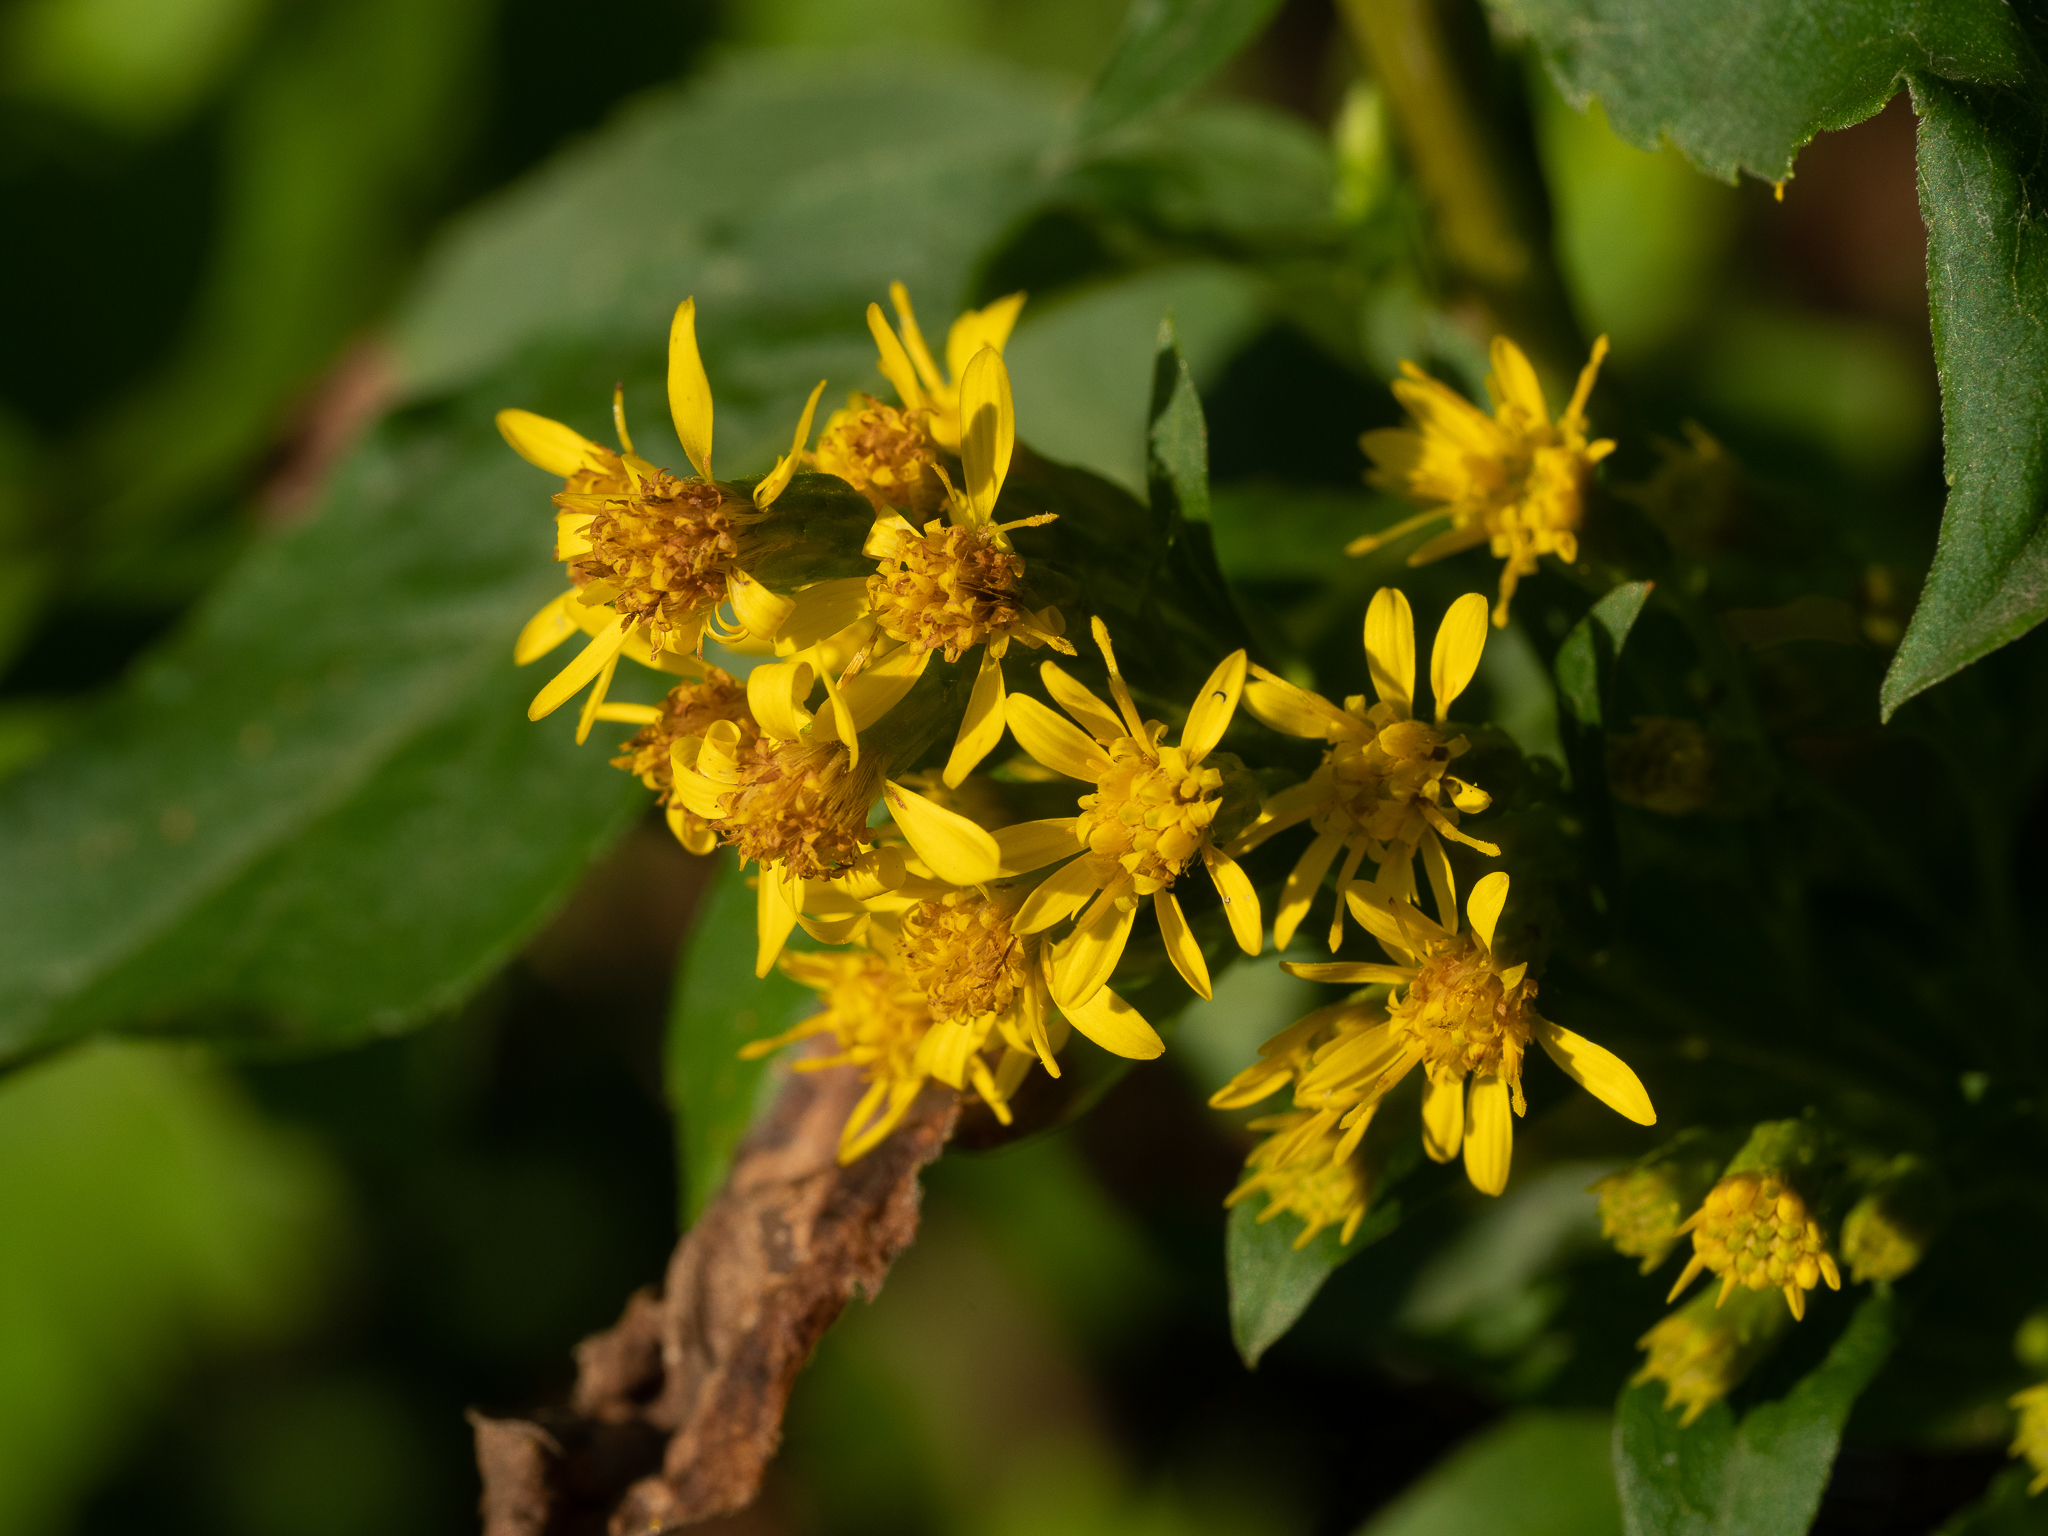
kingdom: Plantae
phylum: Tracheophyta
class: Magnoliopsida
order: Asterales
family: Asteraceae
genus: Solidago
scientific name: Solidago virgaurea
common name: Goldenrod
